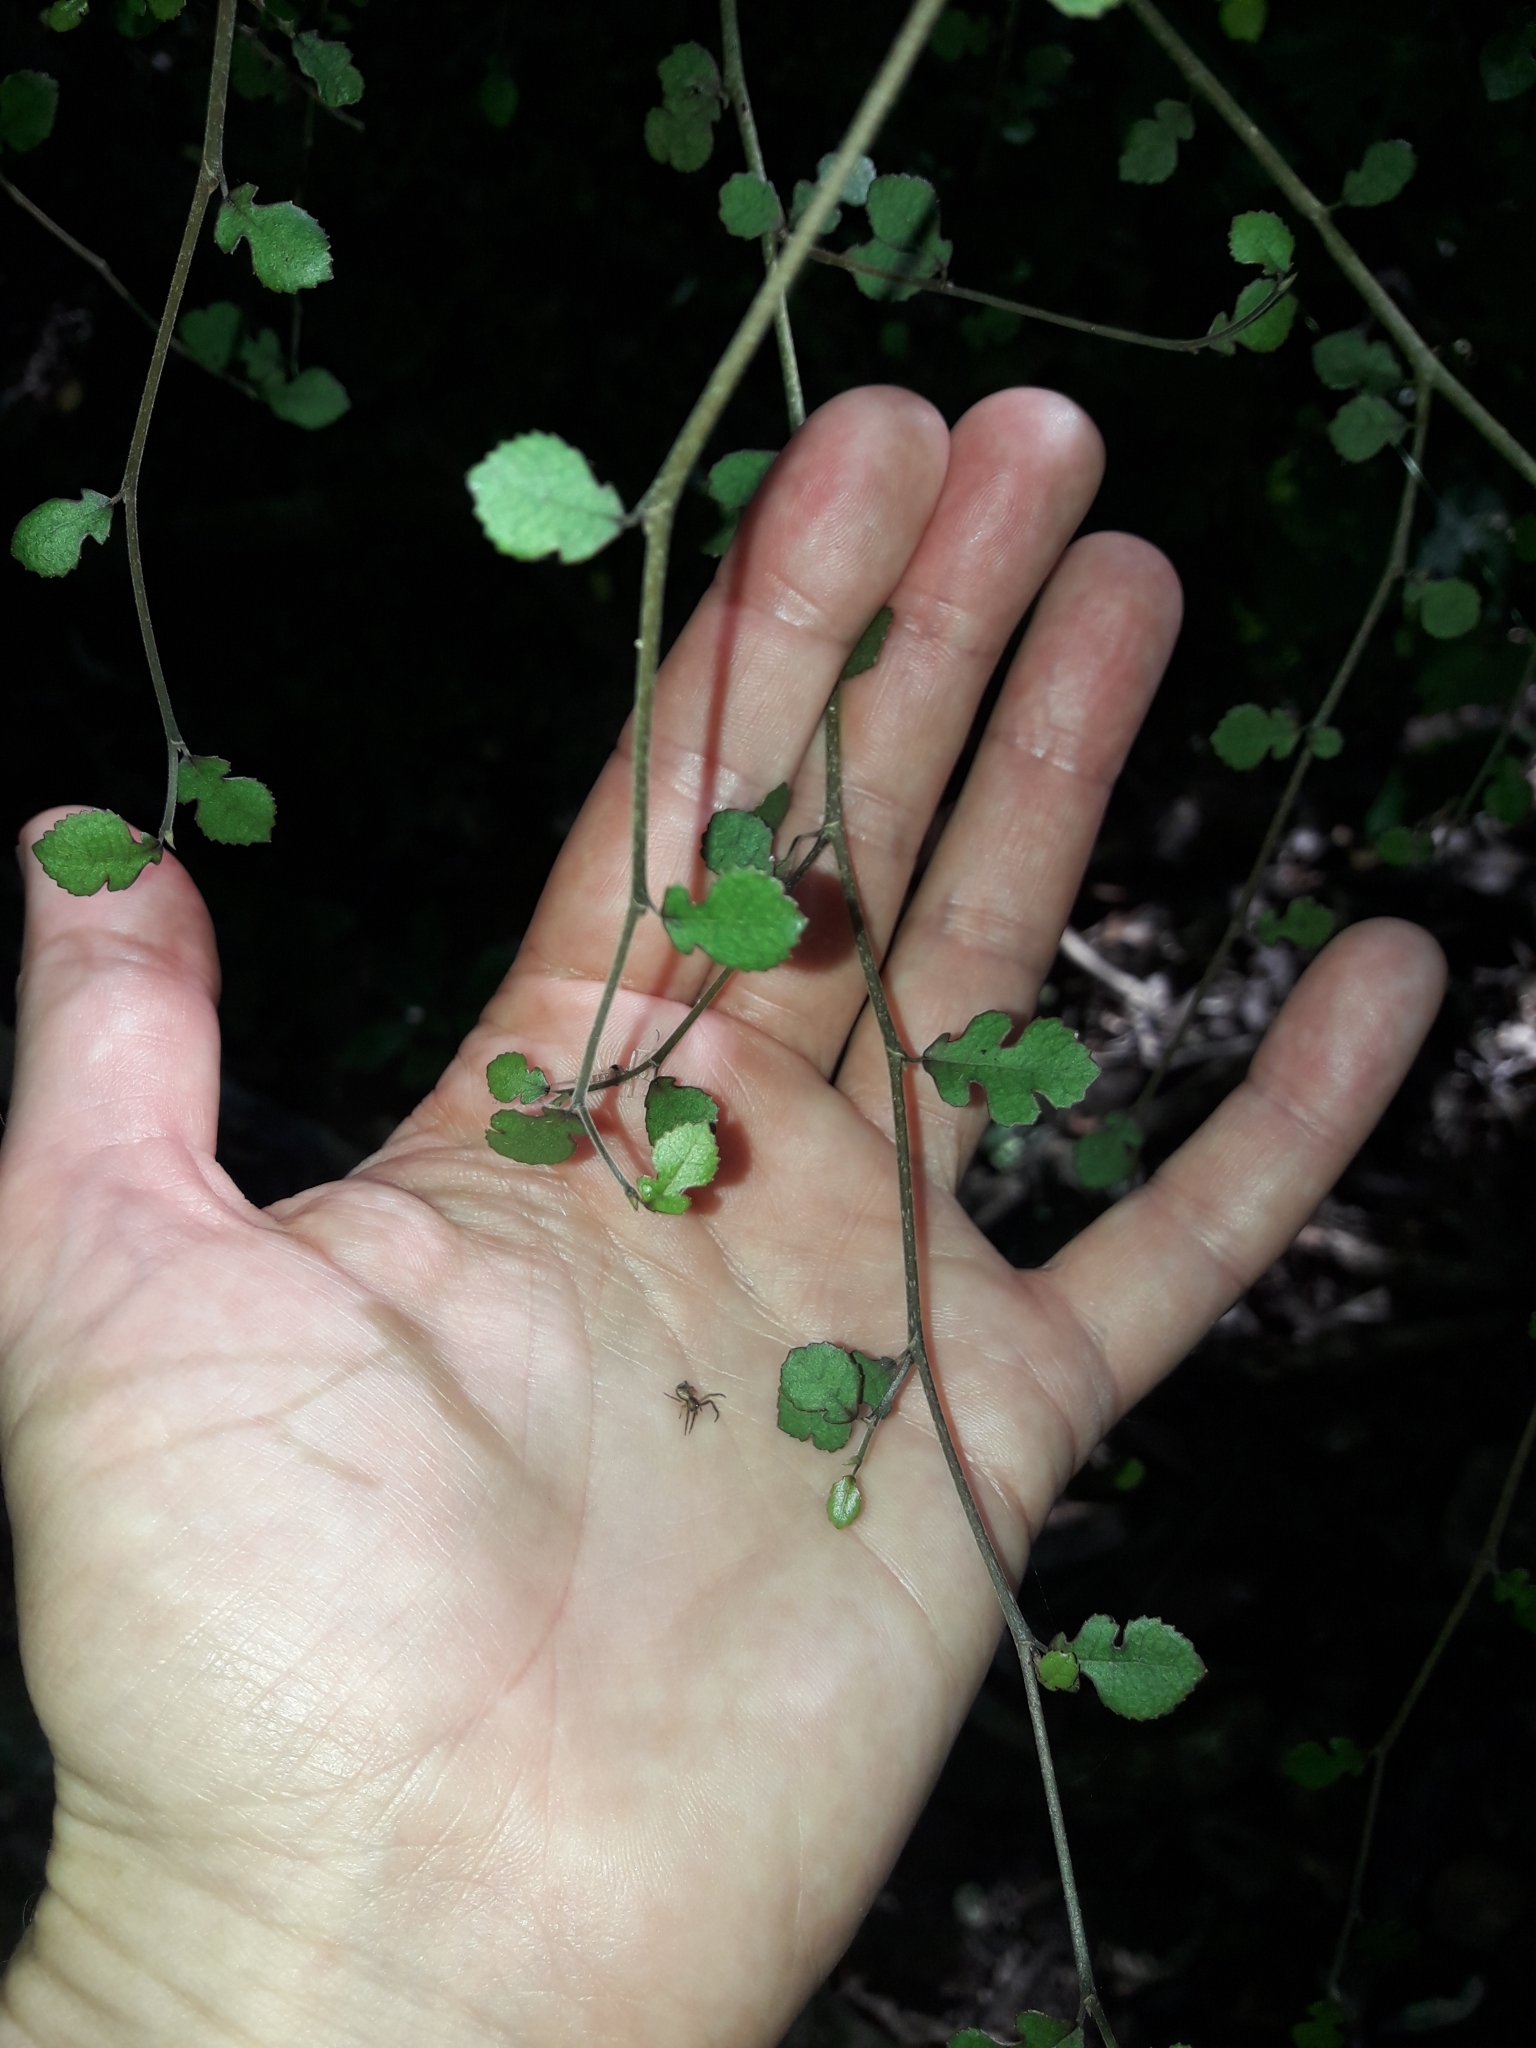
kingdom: Plantae
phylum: Tracheophyta
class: Magnoliopsida
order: Rosales
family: Moraceae
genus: Paratrophis
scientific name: Paratrophis microphylla
